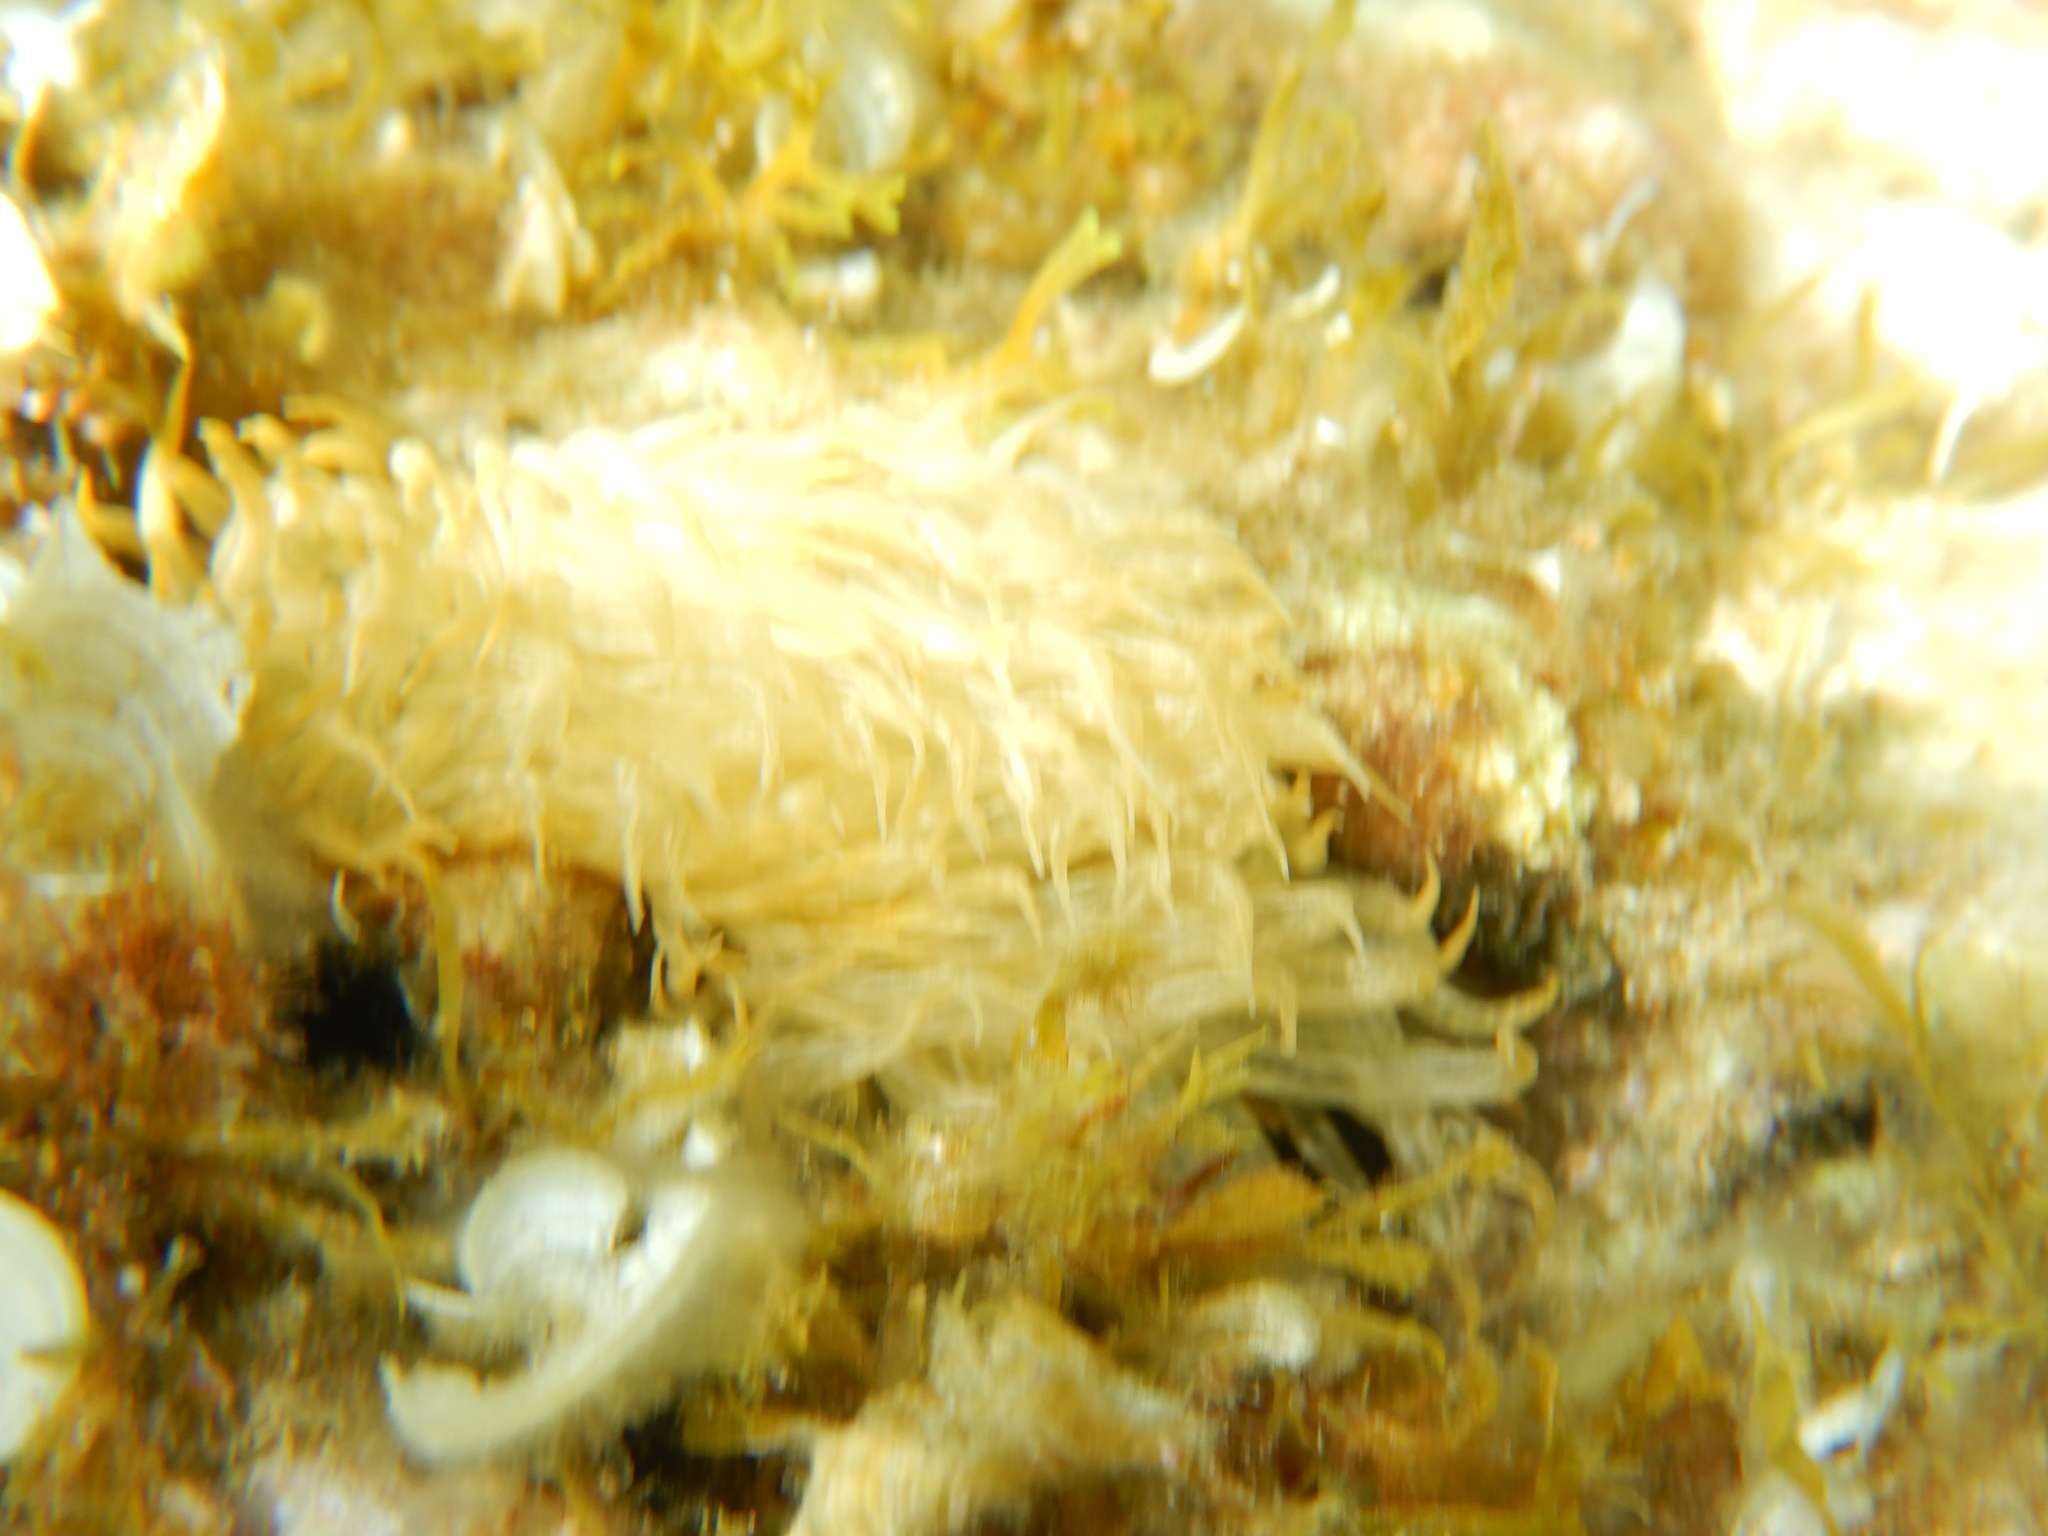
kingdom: Animalia
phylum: Cnidaria
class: Anthozoa
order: Actiniaria
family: Aiptasiidae
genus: Aiptasia
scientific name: Aiptasia mutabilis
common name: Trumpet anemone
